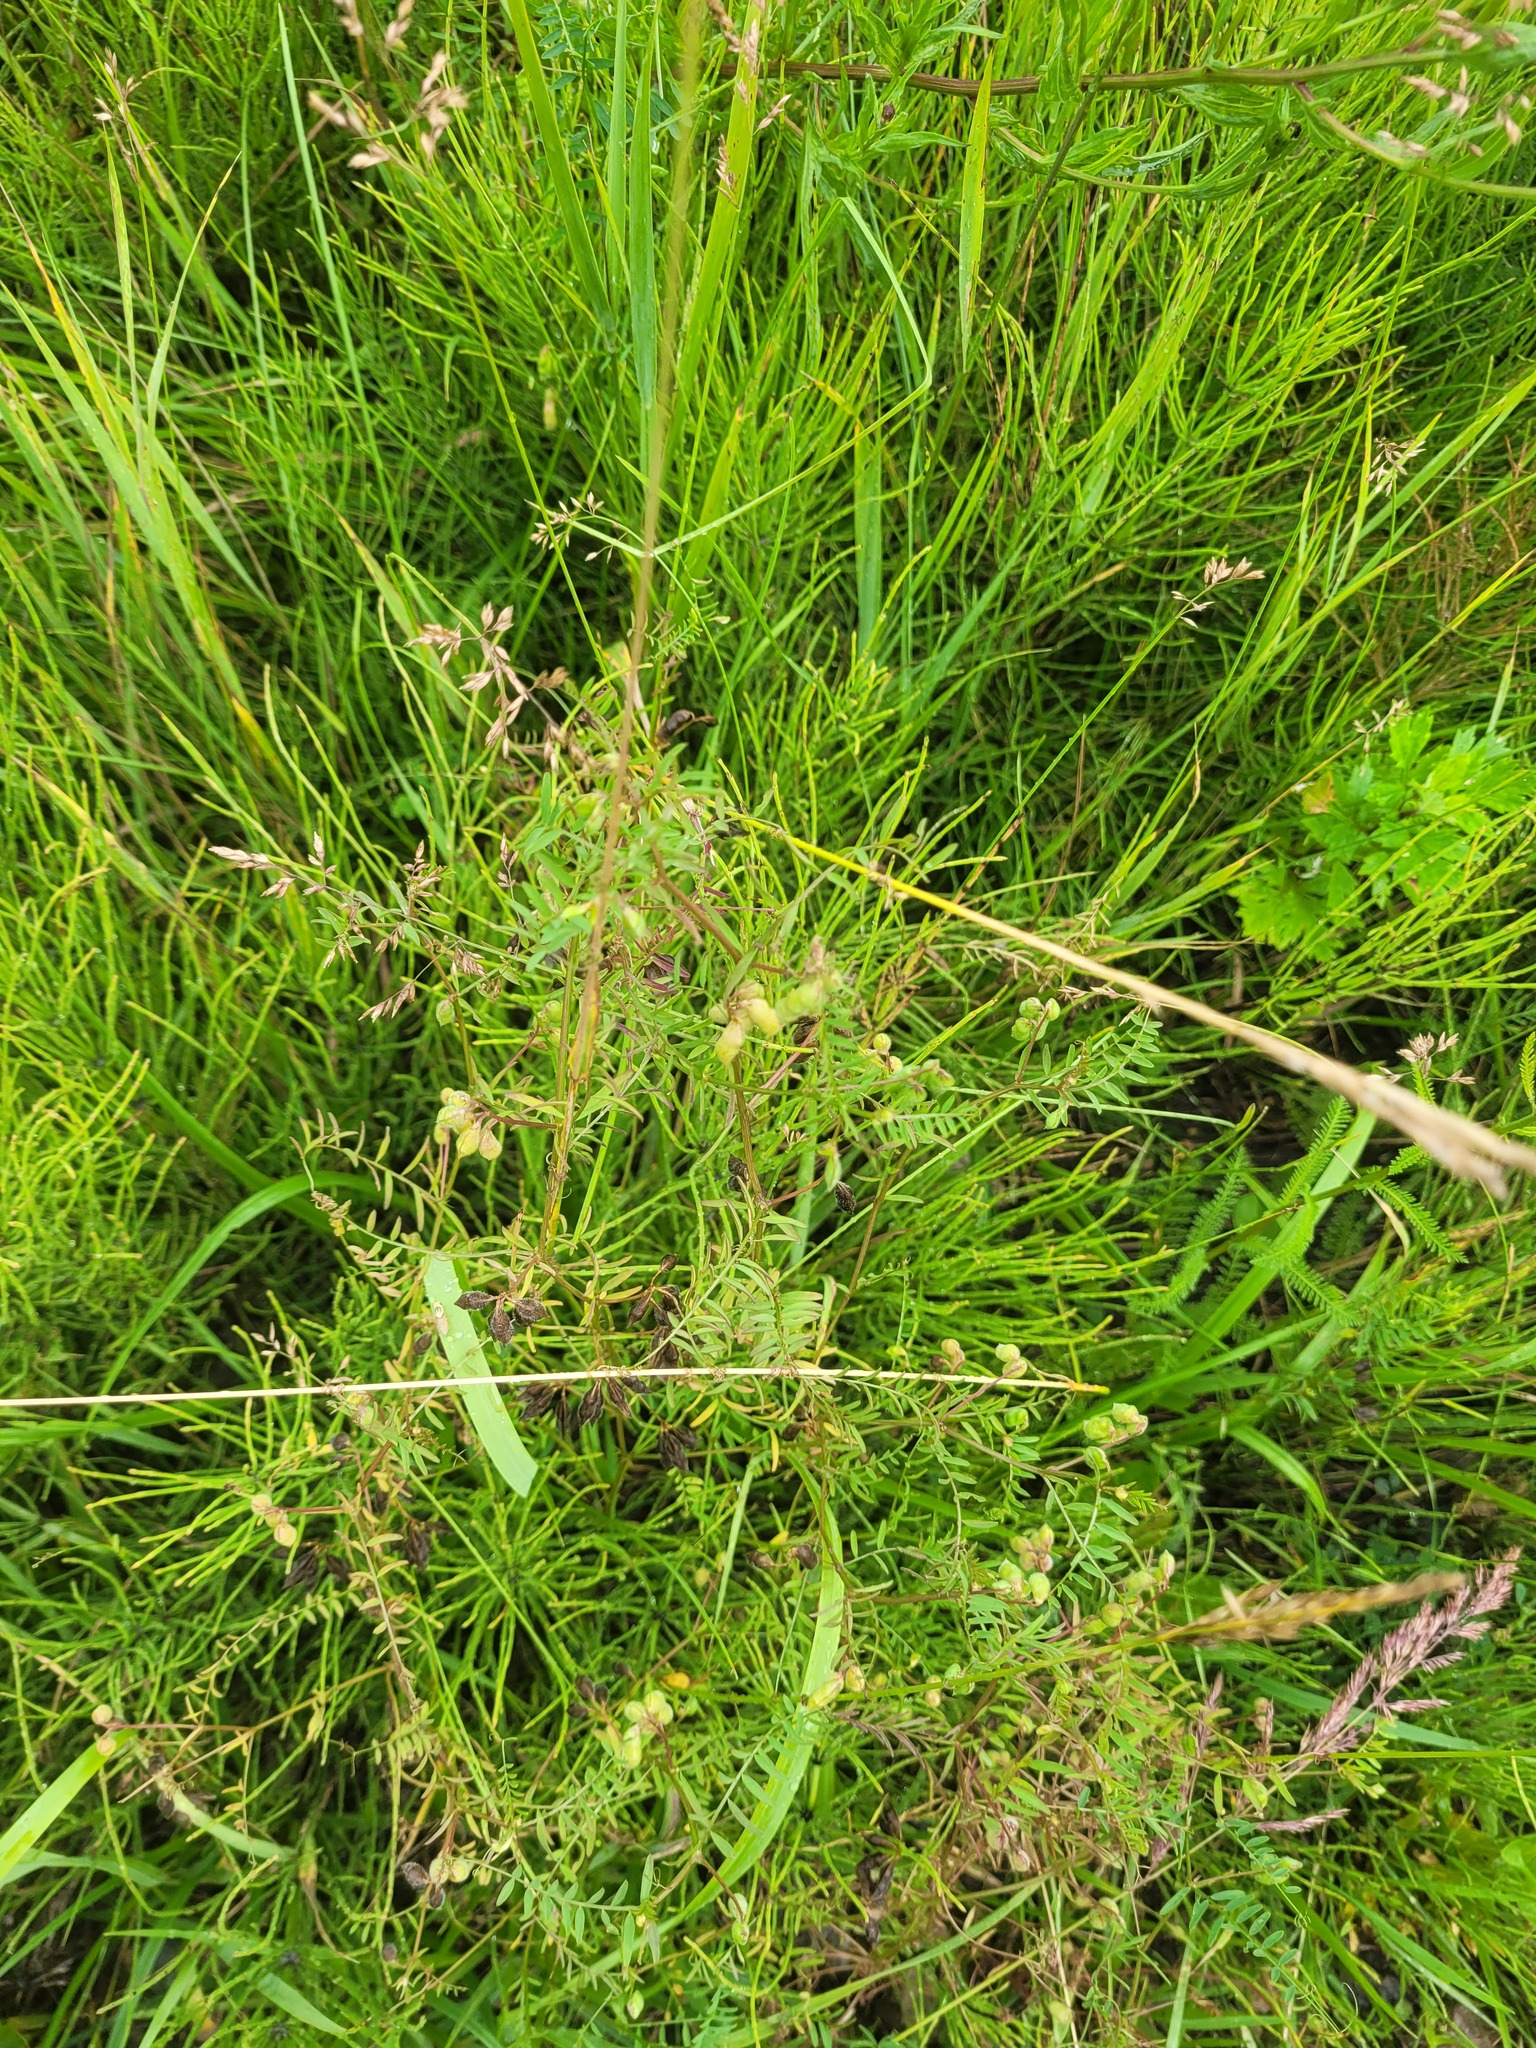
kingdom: Plantae
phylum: Tracheophyta
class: Magnoliopsida
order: Fabales
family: Fabaceae
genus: Vicia
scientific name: Vicia hirsuta
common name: Tiny vetch
